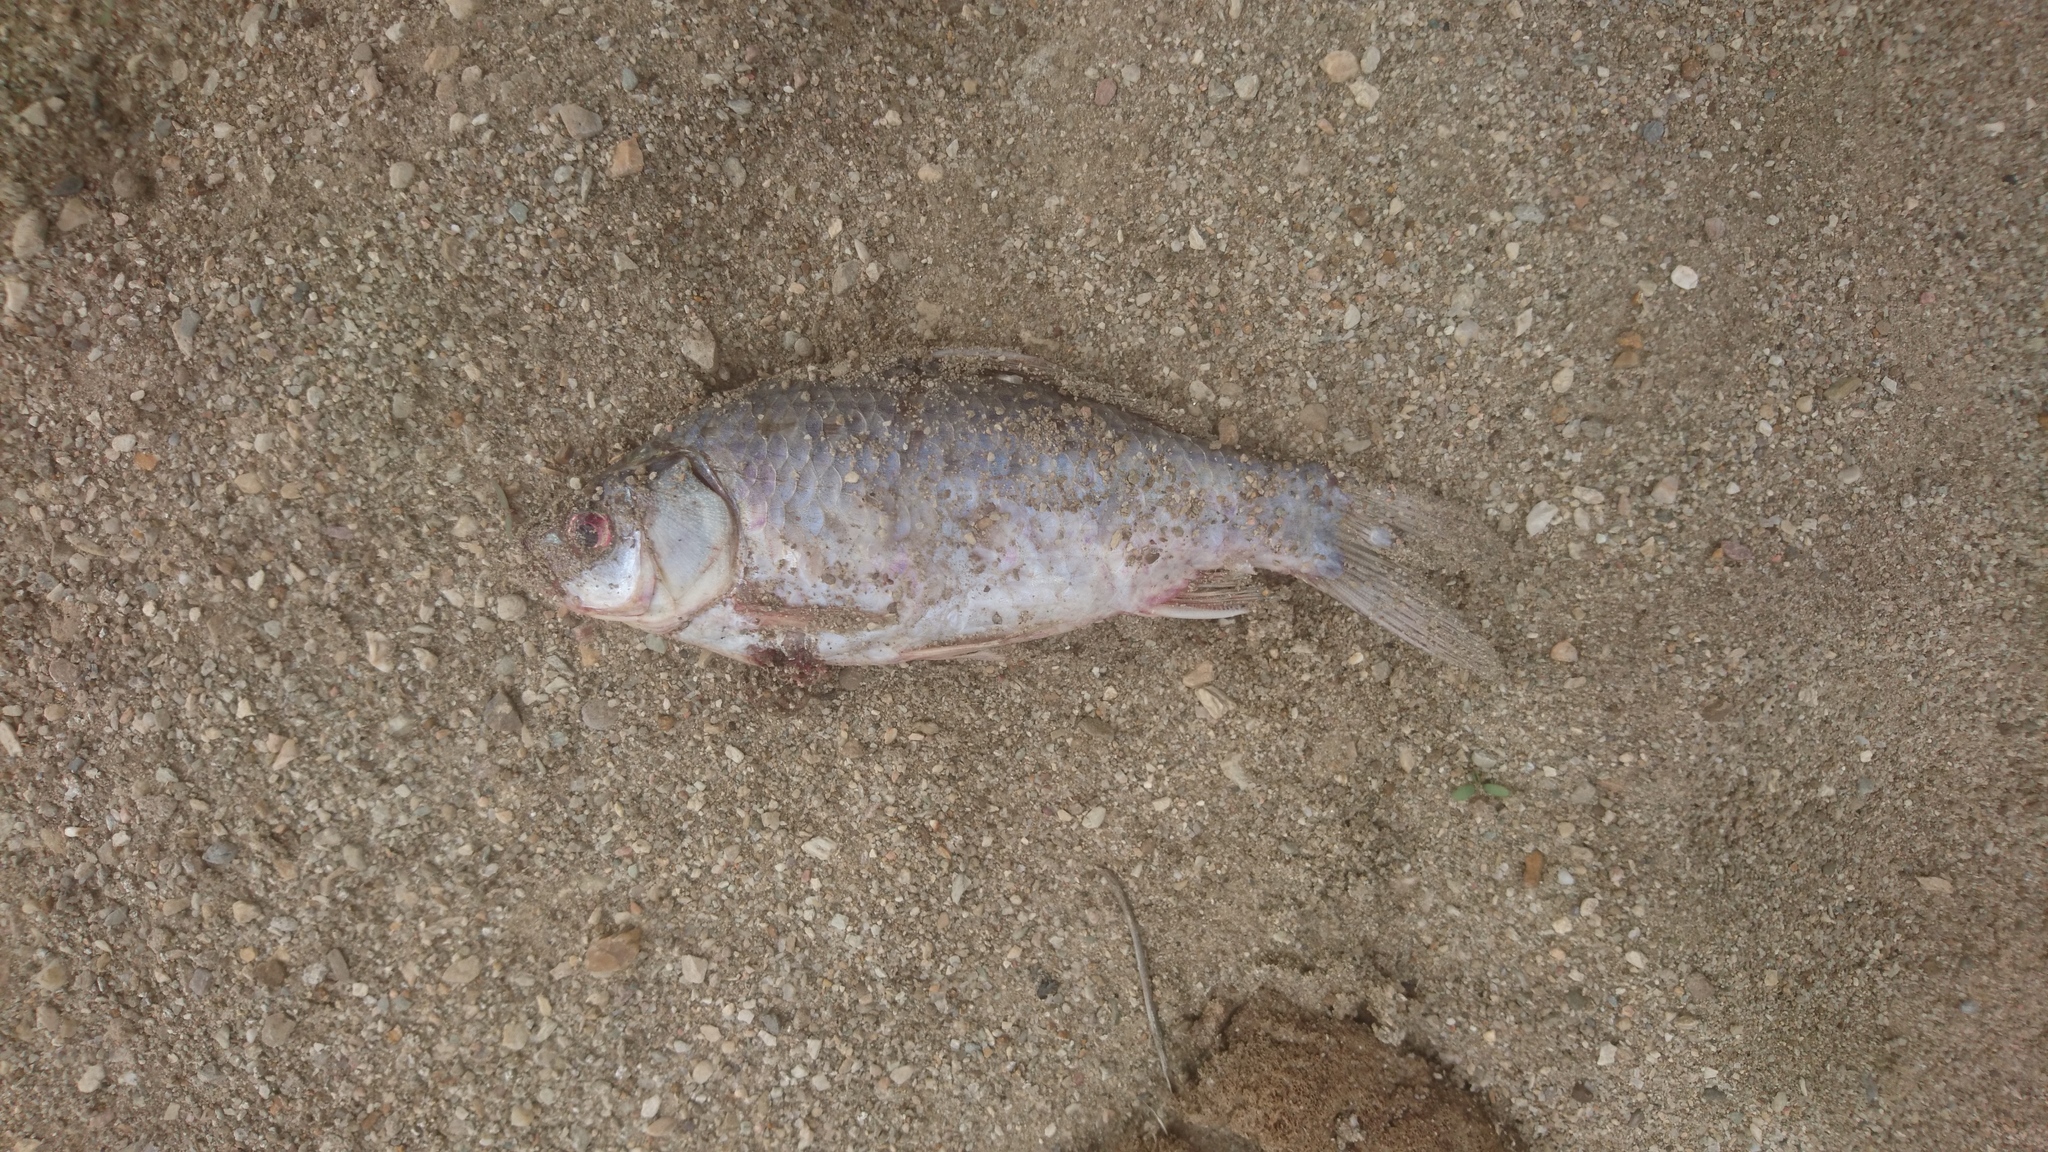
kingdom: Animalia
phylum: Chordata
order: Cypriniformes
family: Cyprinidae
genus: Carassius
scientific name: Carassius gibelio
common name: Prussian carp
